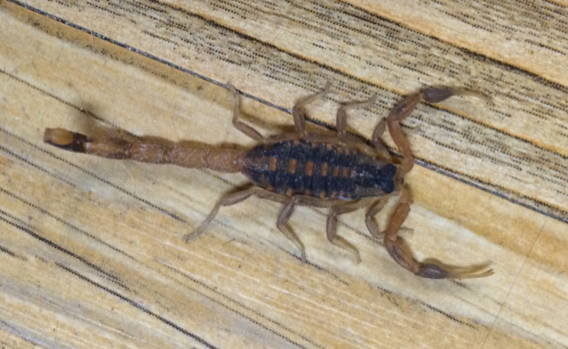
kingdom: Animalia
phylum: Arthropoda
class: Arachnida
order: Scorpiones
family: Buthidae
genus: Centruroides
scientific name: Centruroides vittatus
